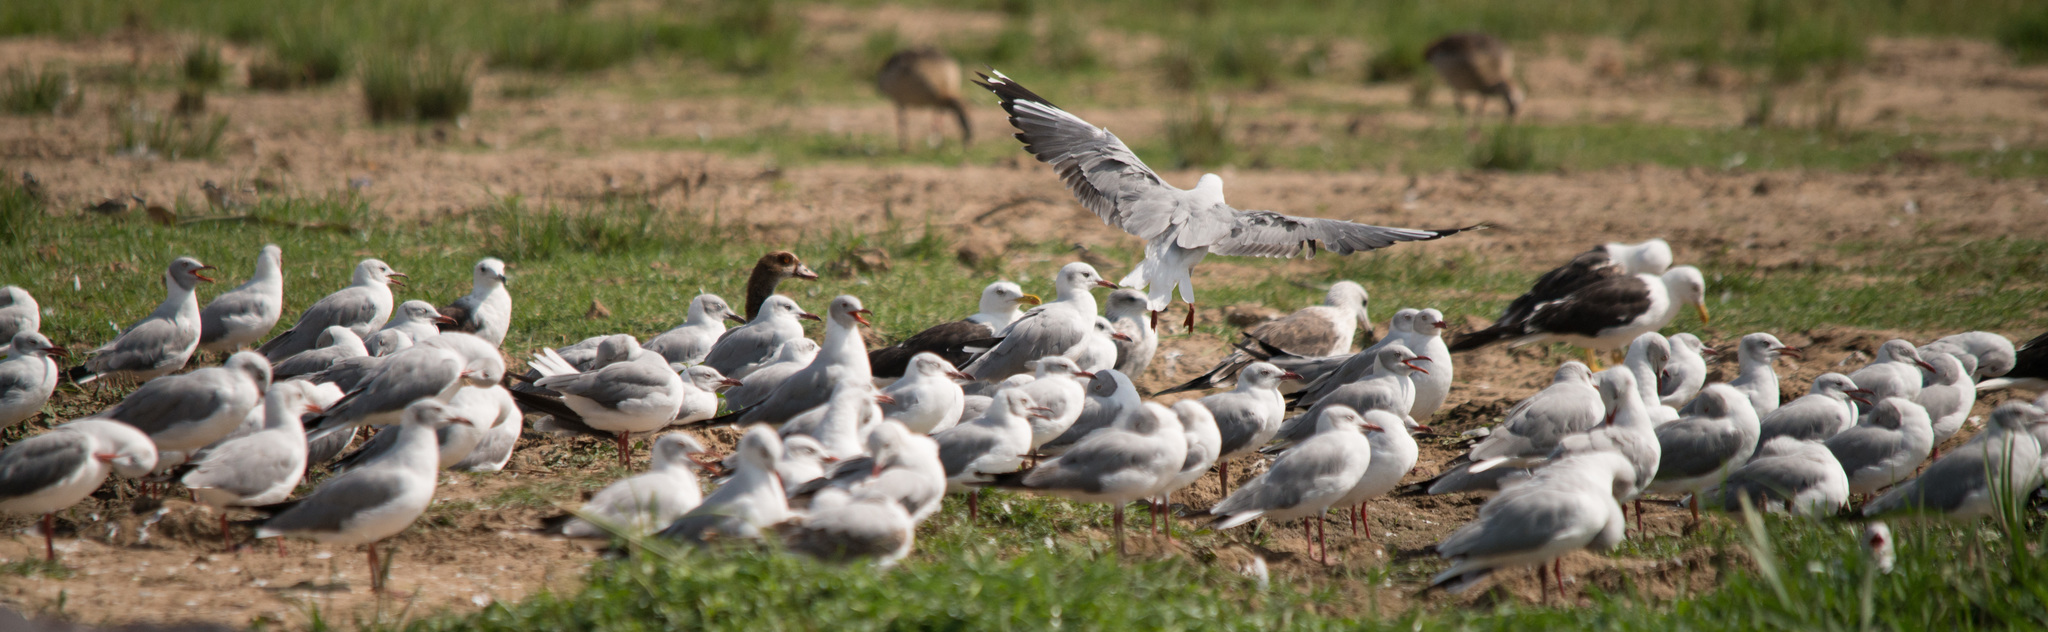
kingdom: Animalia
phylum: Chordata
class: Aves
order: Charadriiformes
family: Laridae
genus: Chroicocephalus
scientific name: Chroicocephalus cirrocephalus
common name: Grey-headed gull
